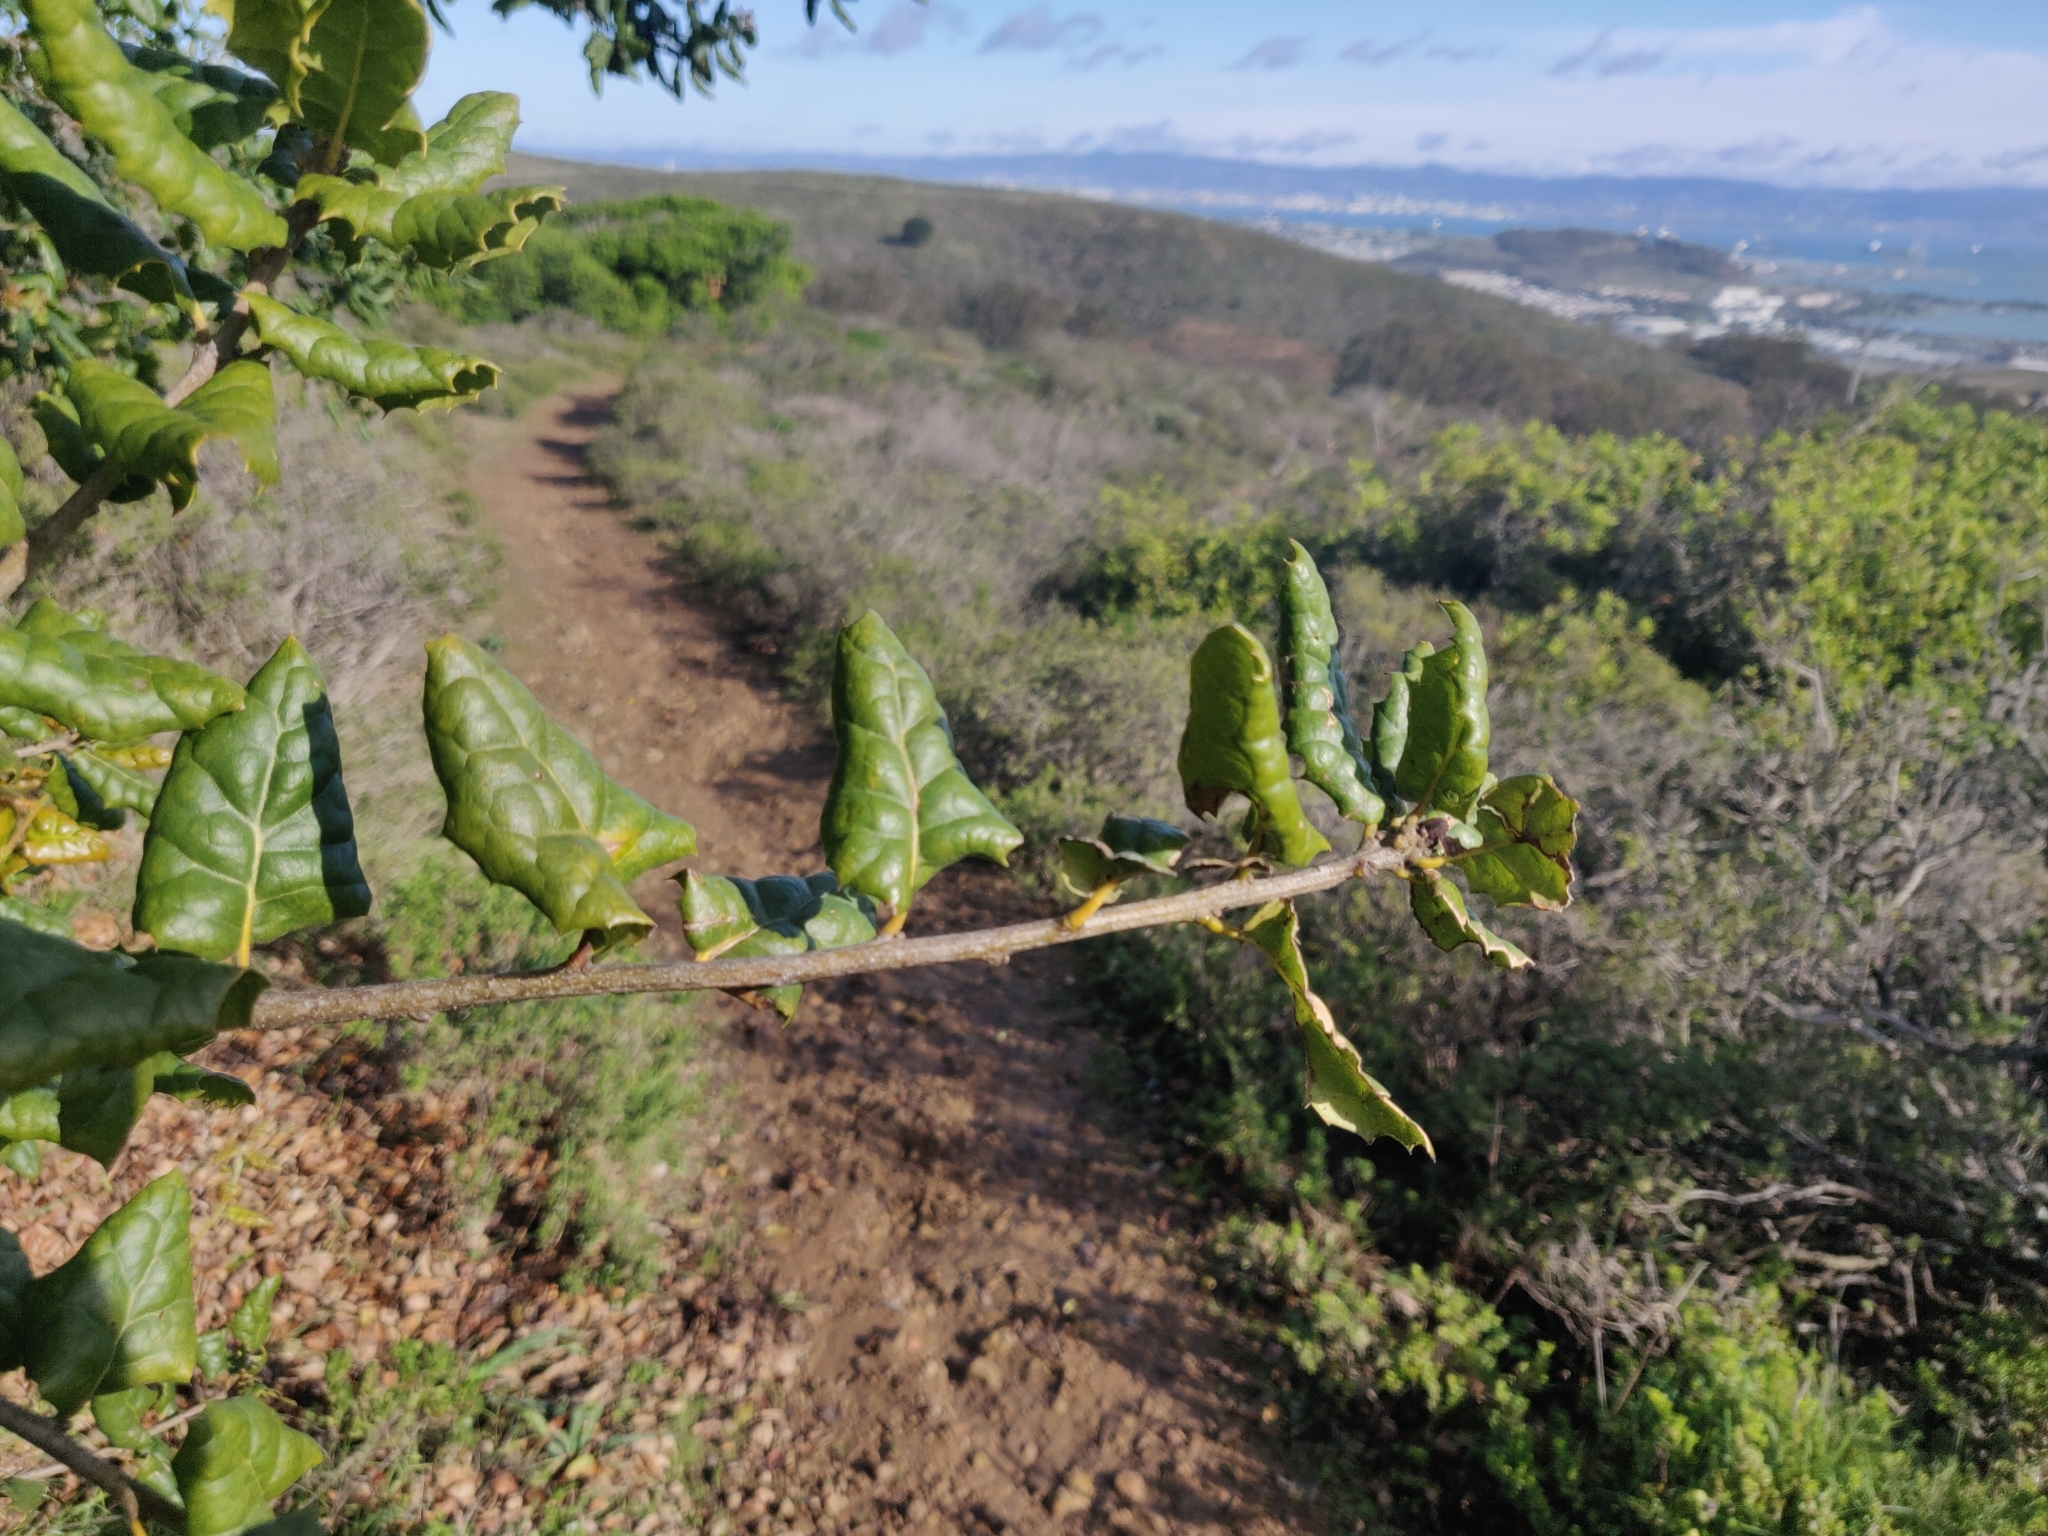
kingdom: Plantae
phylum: Tracheophyta
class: Magnoliopsida
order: Fagales
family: Fagaceae
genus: Quercus
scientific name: Quercus agrifolia
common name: California live oak
